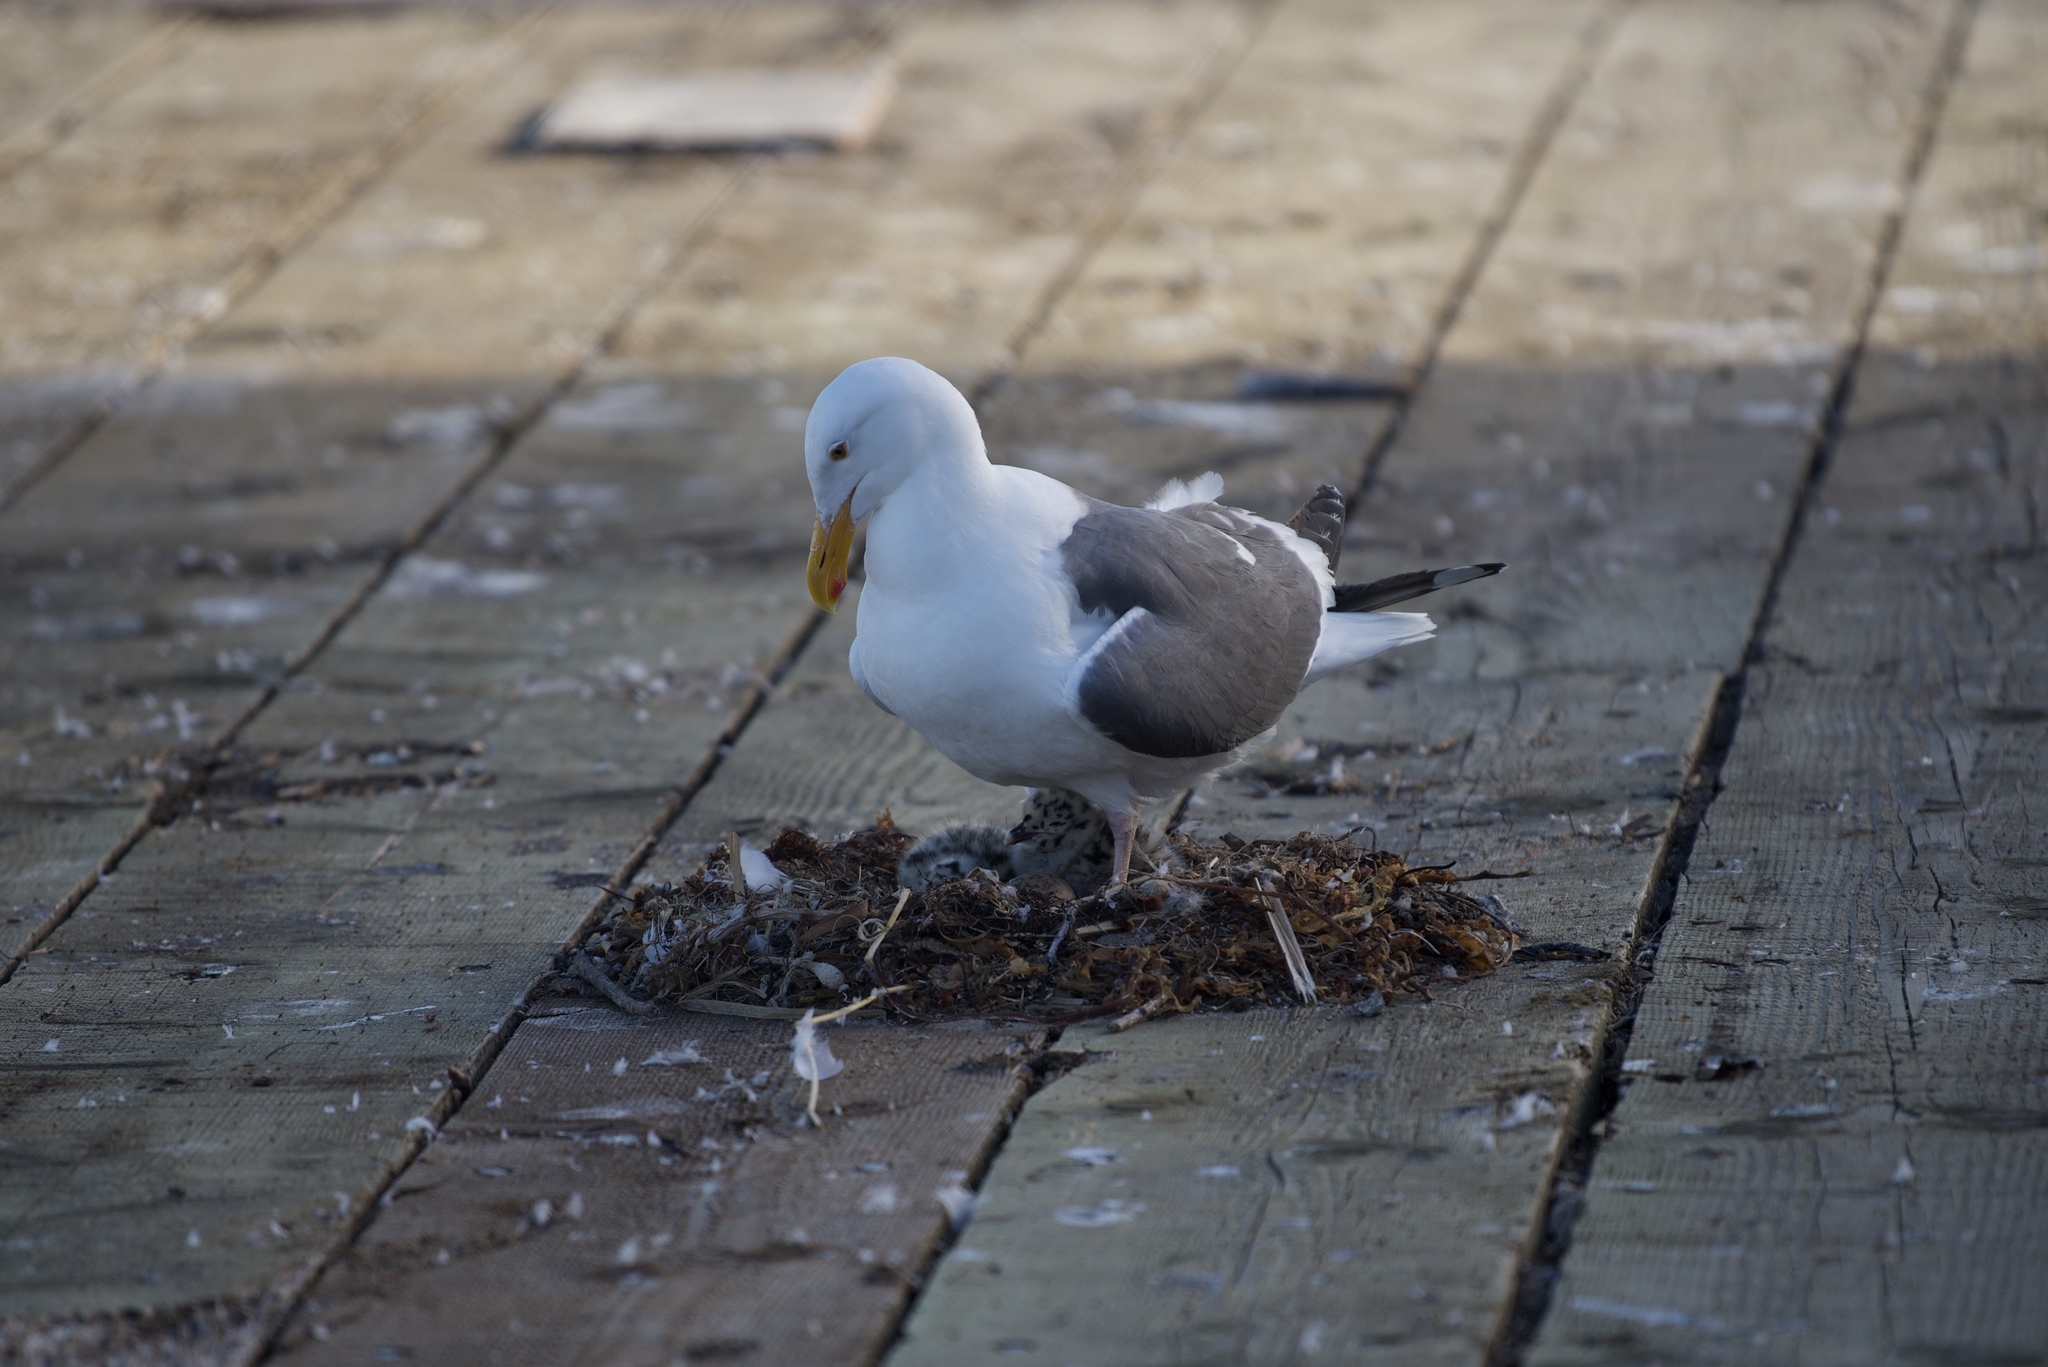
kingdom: Animalia
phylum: Chordata
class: Aves
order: Charadriiformes
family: Laridae
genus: Larus
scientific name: Larus occidentalis
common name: Western gull
